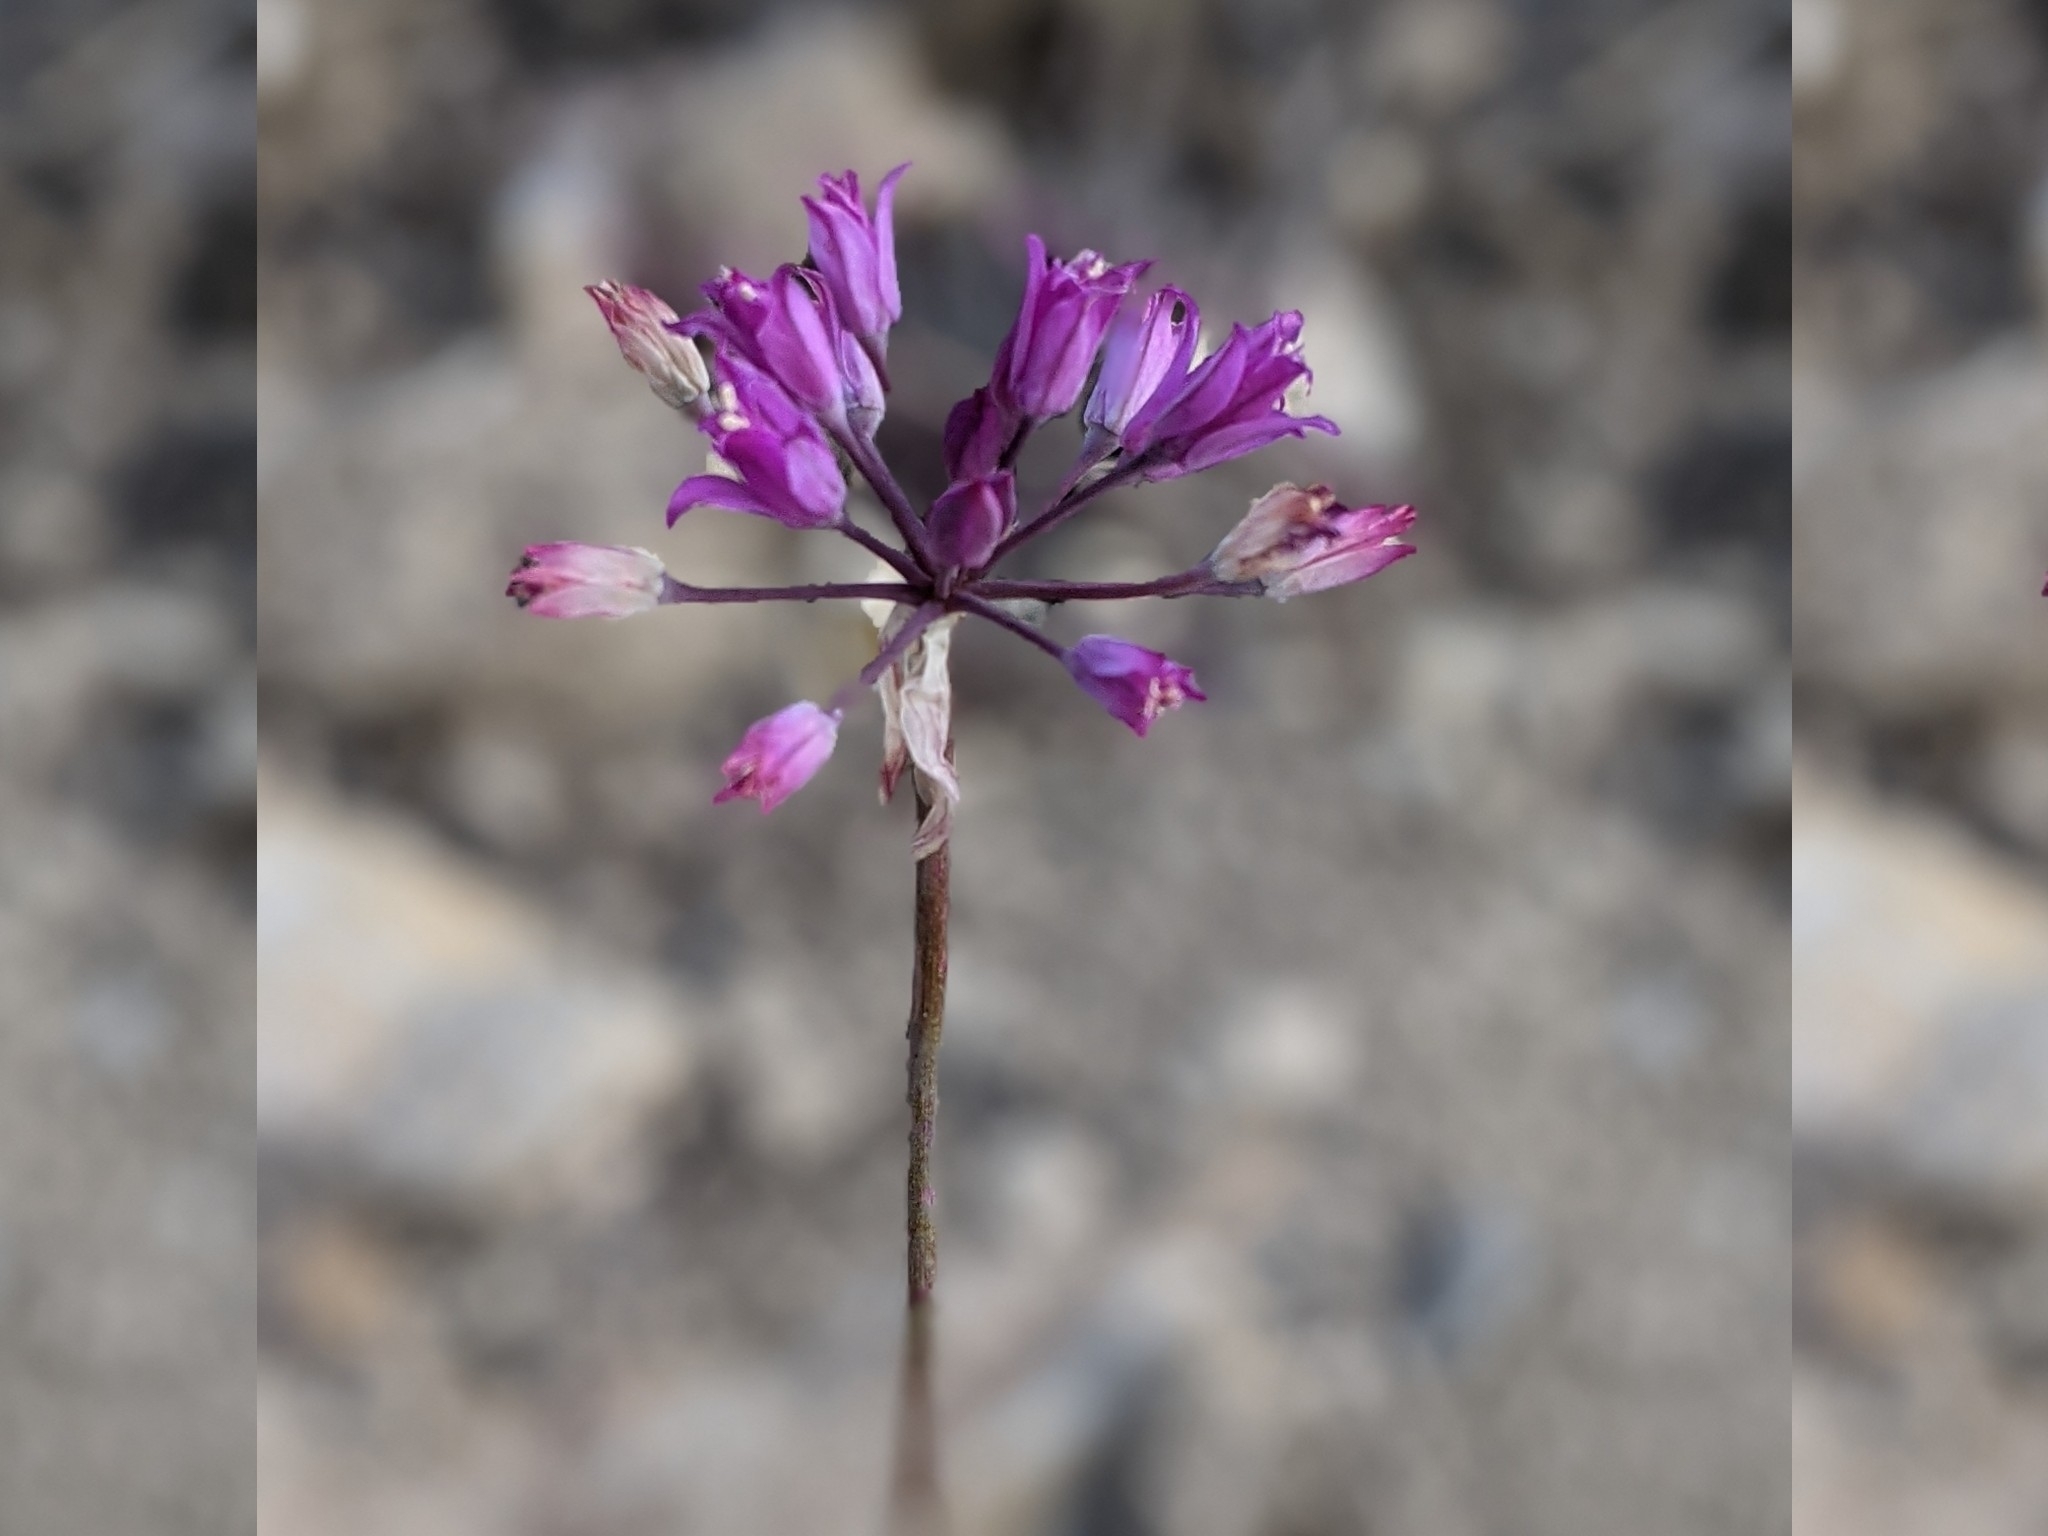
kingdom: Plantae
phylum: Tracheophyta
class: Liliopsida
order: Asparagales
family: Amaryllidaceae
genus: Allium
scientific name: Allium acuminatum
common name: Hooker's onion
